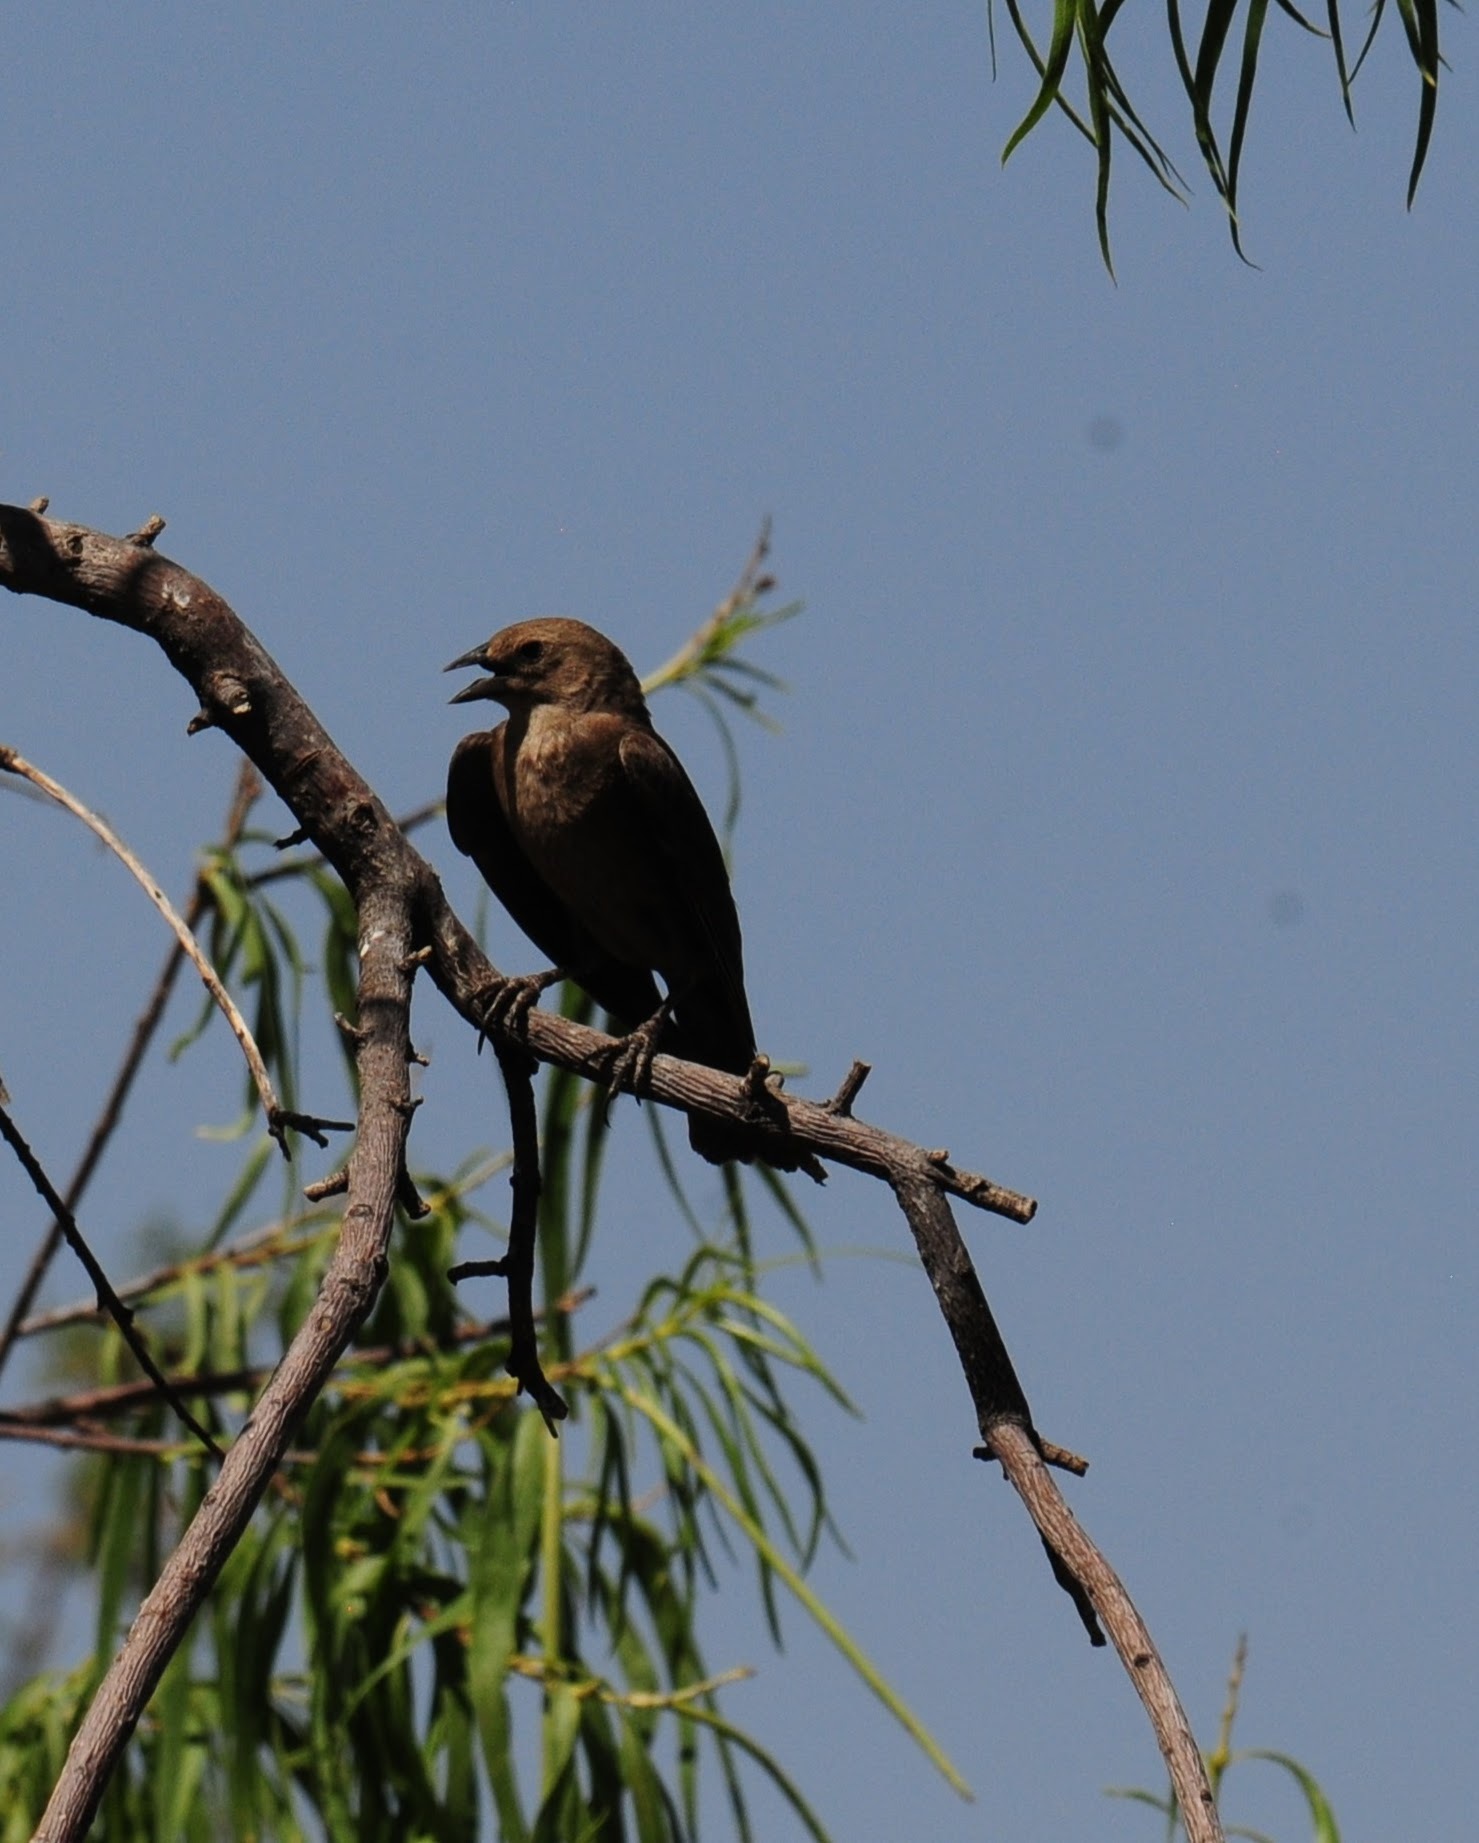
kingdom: Animalia
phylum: Chordata
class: Aves
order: Passeriformes
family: Icteridae
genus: Molothrus
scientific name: Molothrus ater
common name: Brown-headed cowbird
